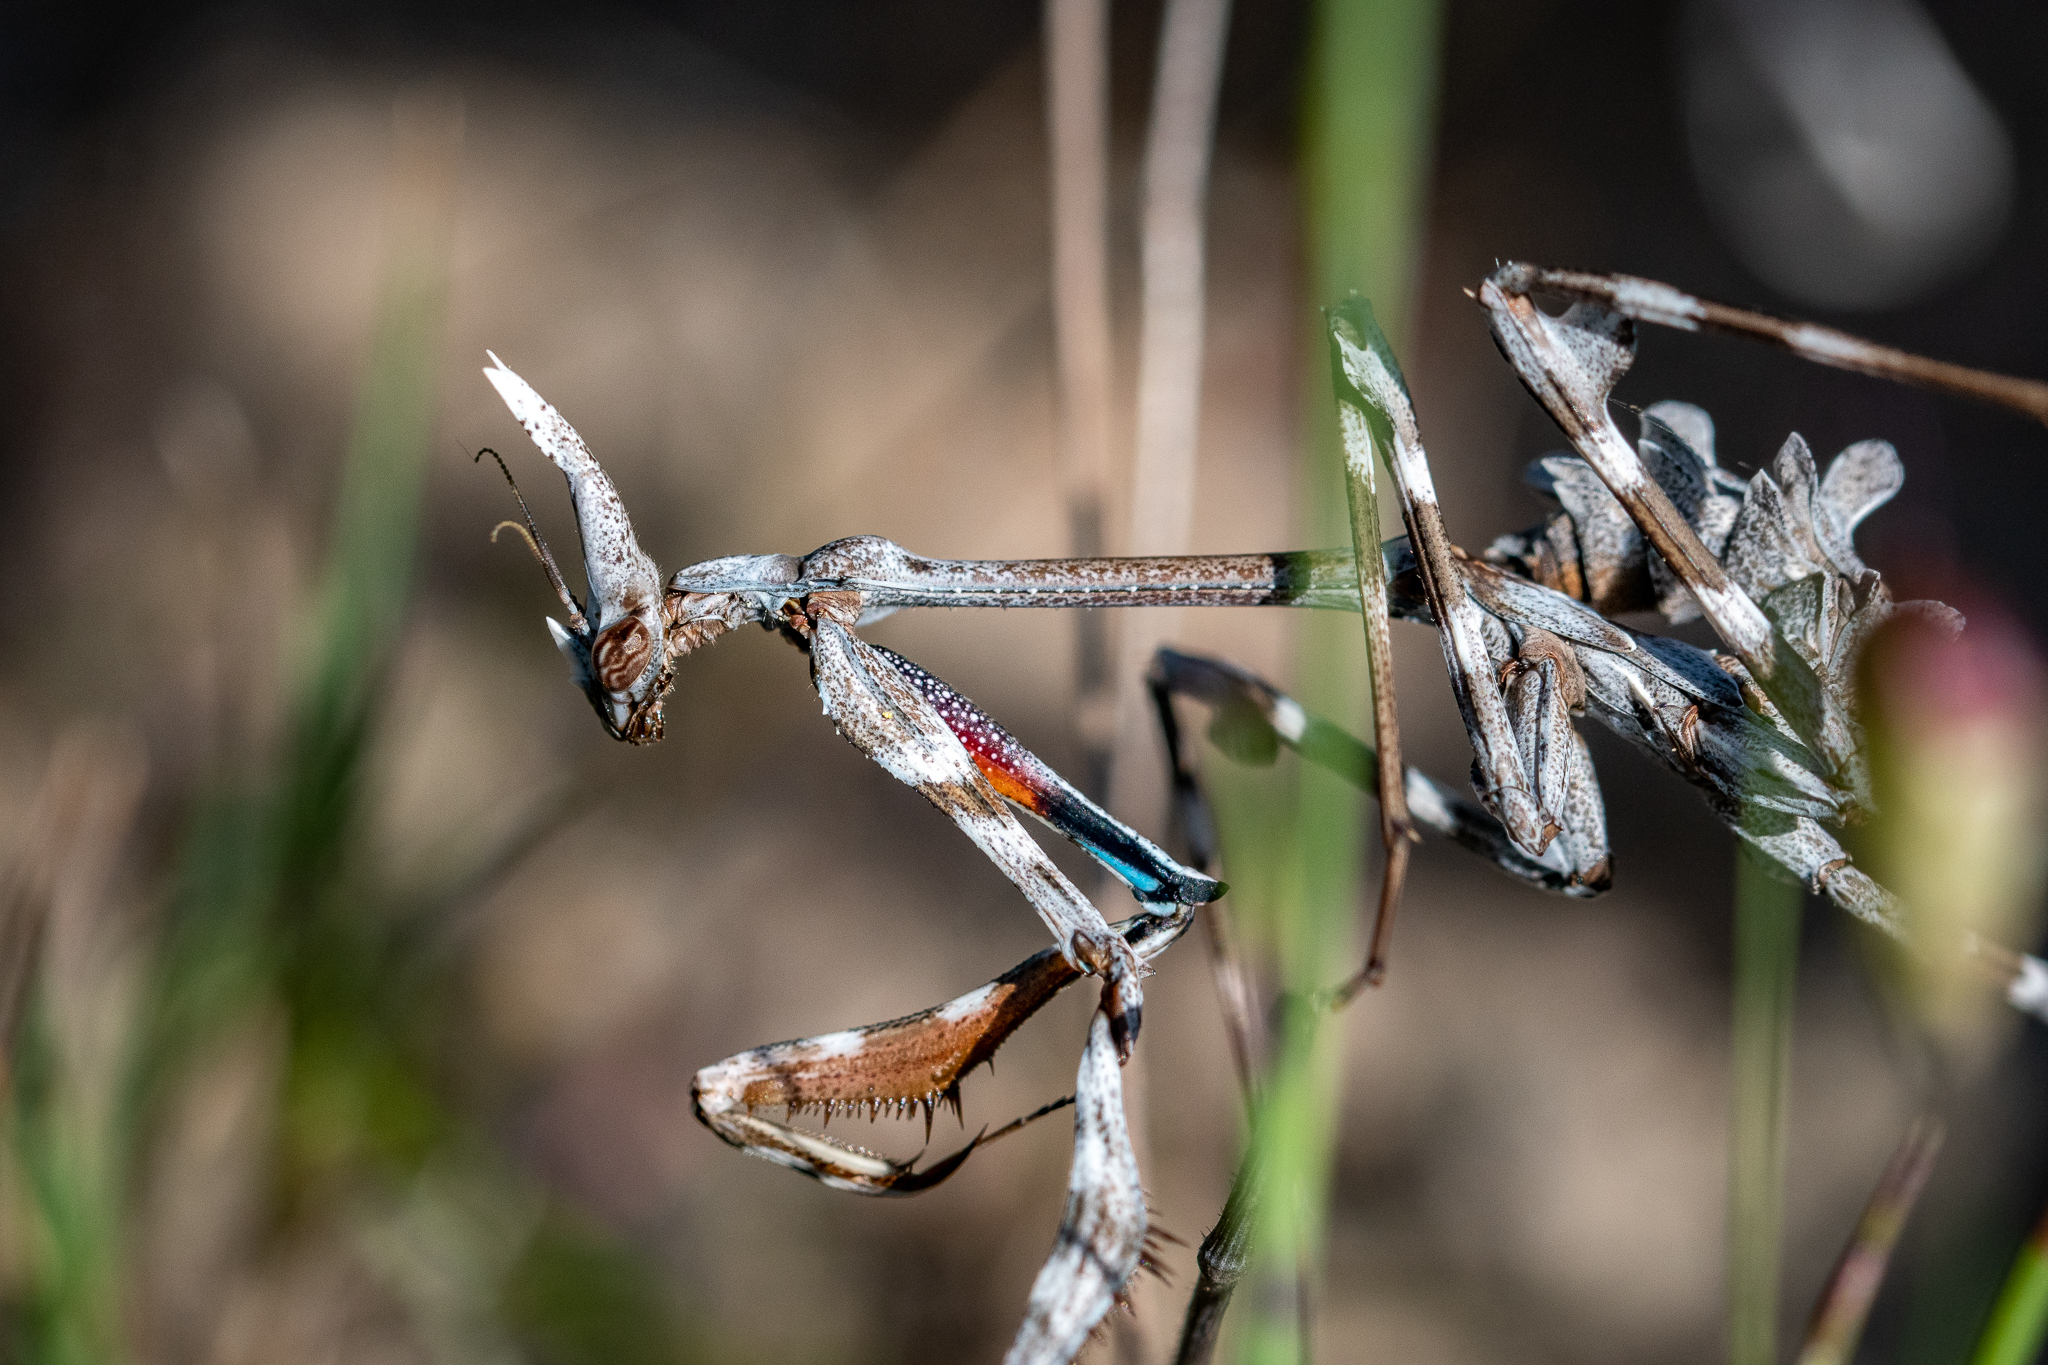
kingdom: Animalia
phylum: Arthropoda
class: Insecta
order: Mantodea
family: Empusidae
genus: Empusa
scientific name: Empusa binotata
